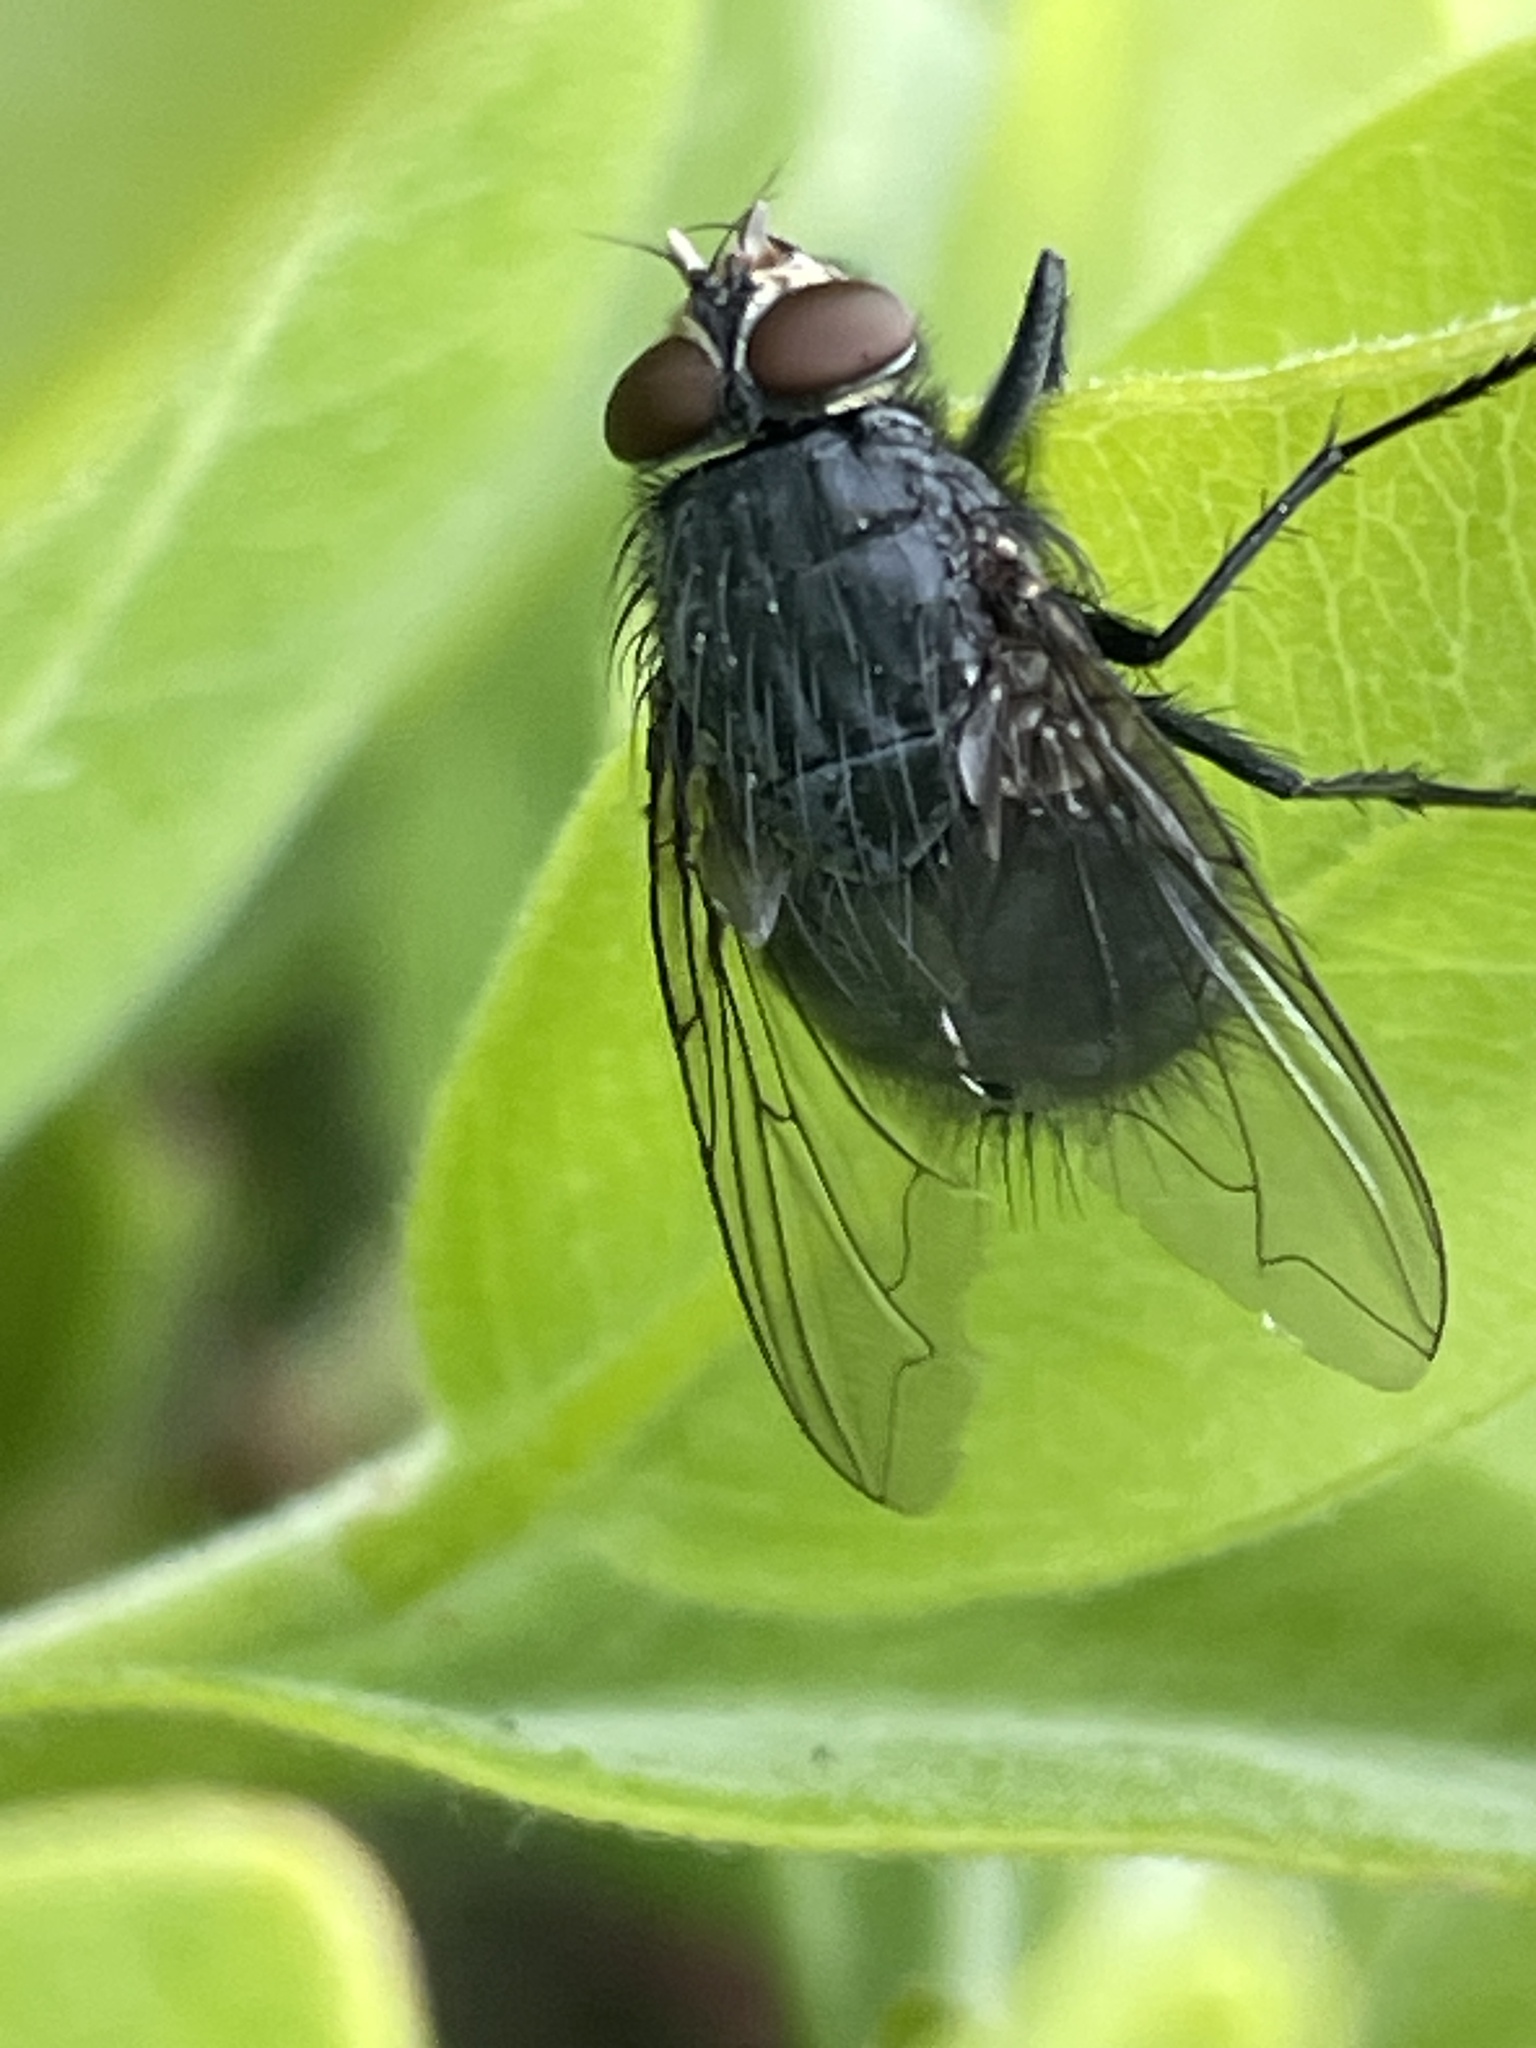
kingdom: Animalia
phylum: Arthropoda
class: Insecta
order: Diptera
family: Calliphoridae
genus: Calliphora
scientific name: Calliphora vicina
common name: Common blow flie
